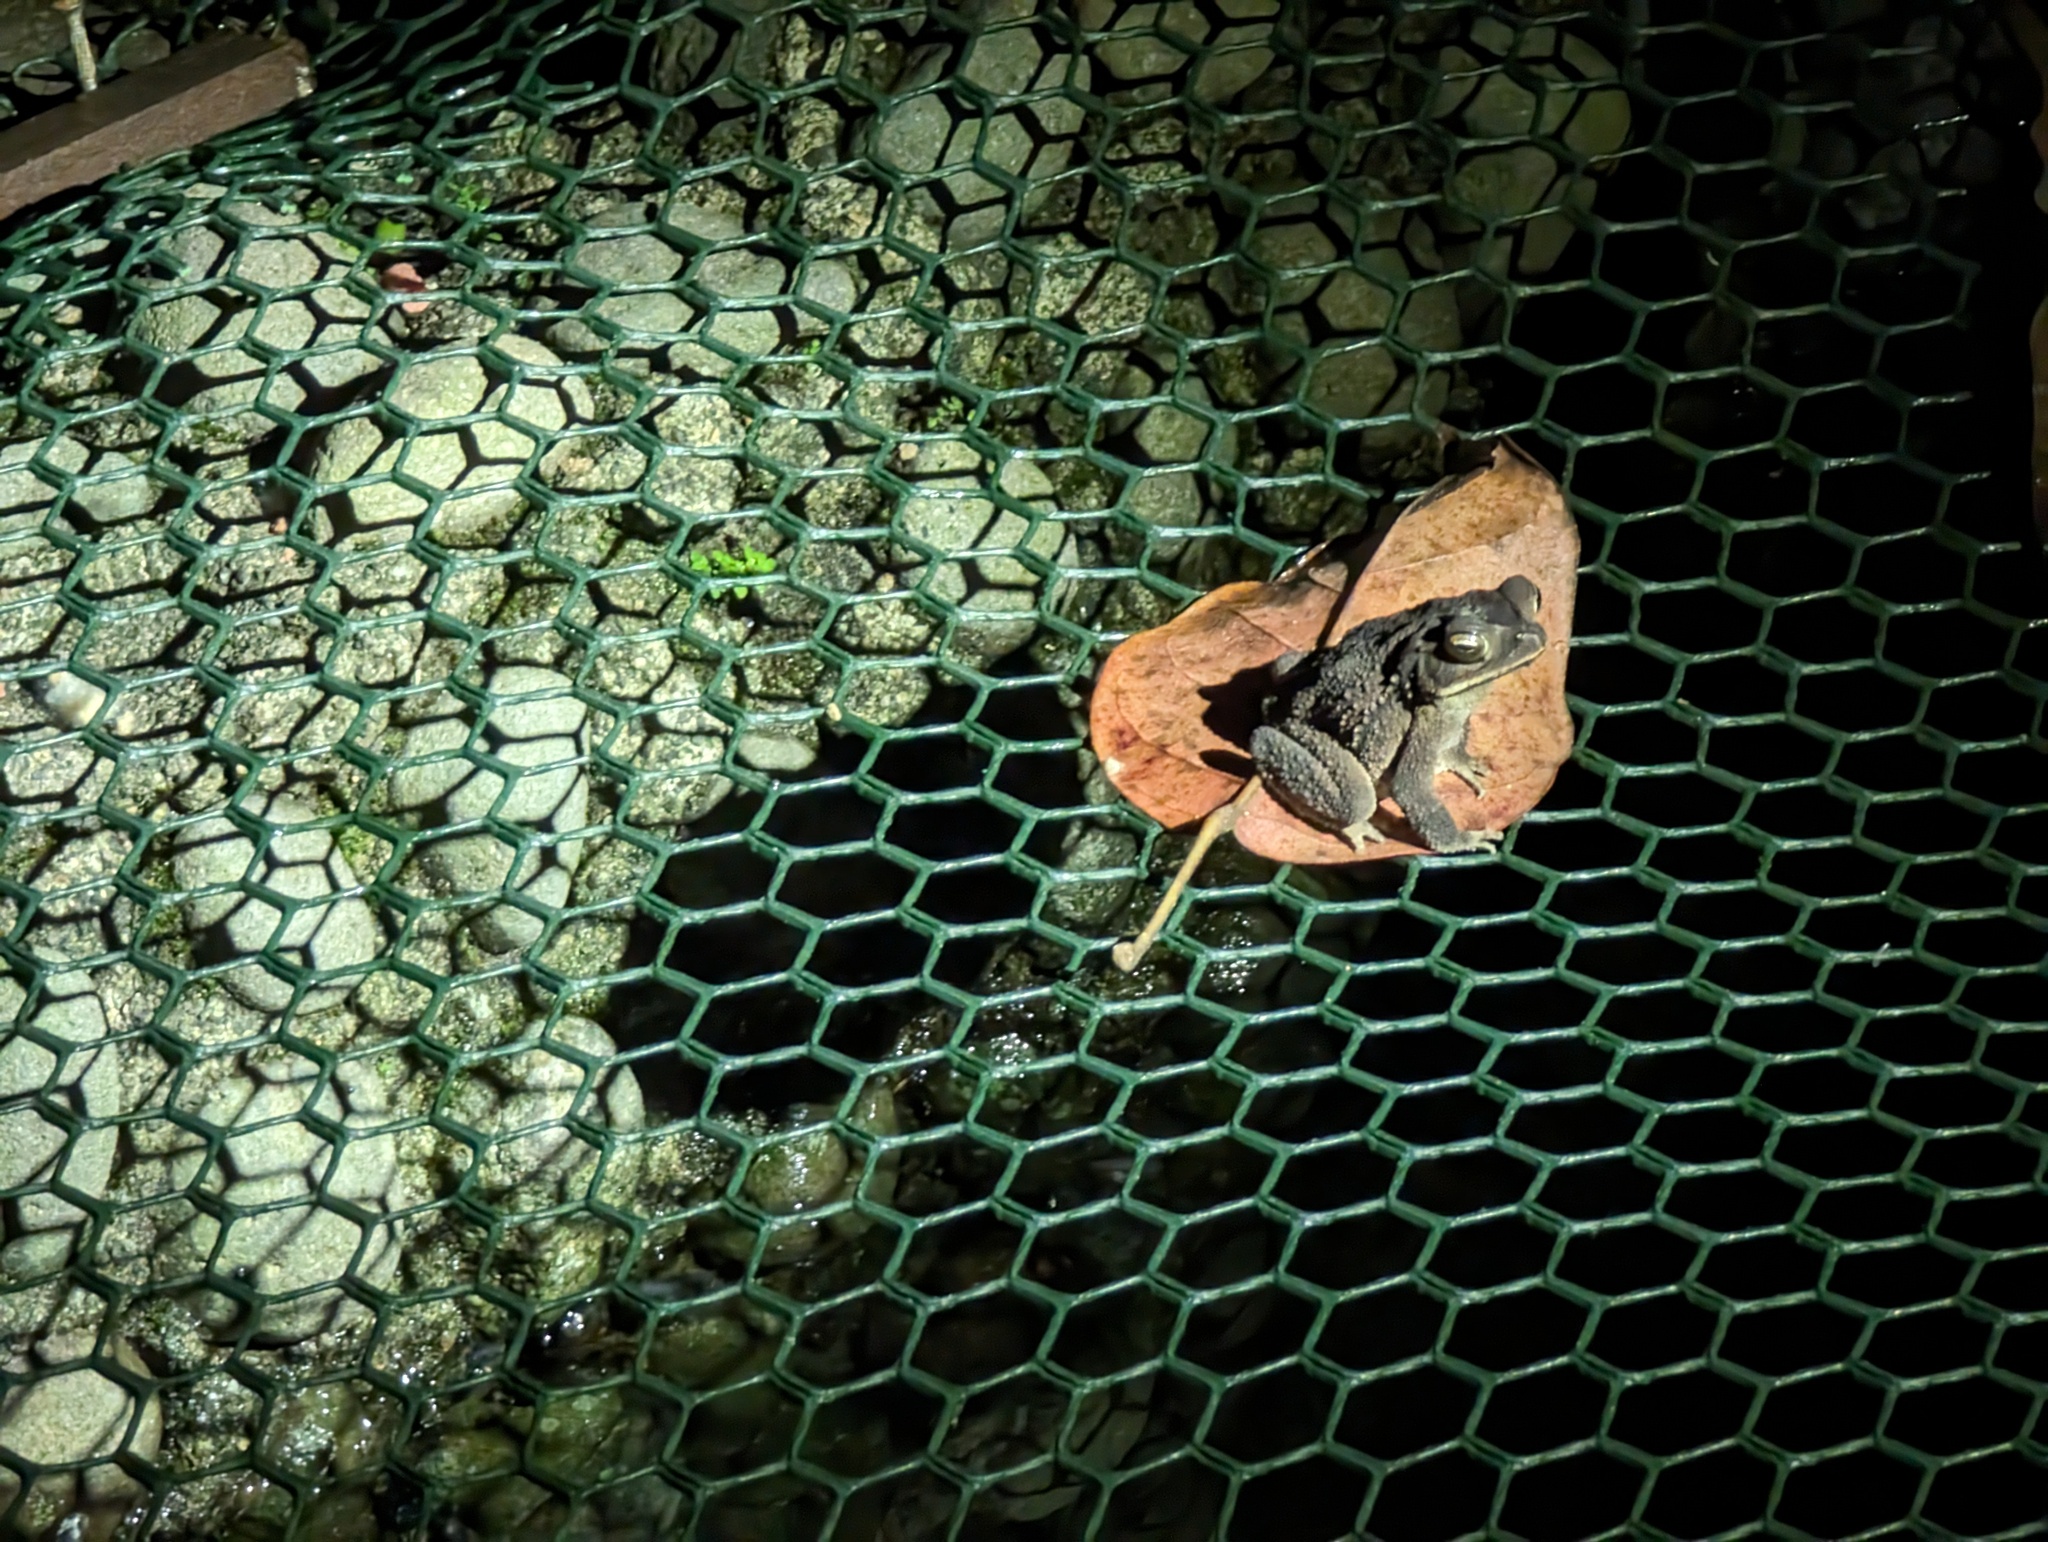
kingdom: Animalia
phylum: Chordata
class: Amphibia
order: Anura
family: Bufonidae
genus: Rhinella
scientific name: Rhinella horribilis
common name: Mesoamerican cane toad
